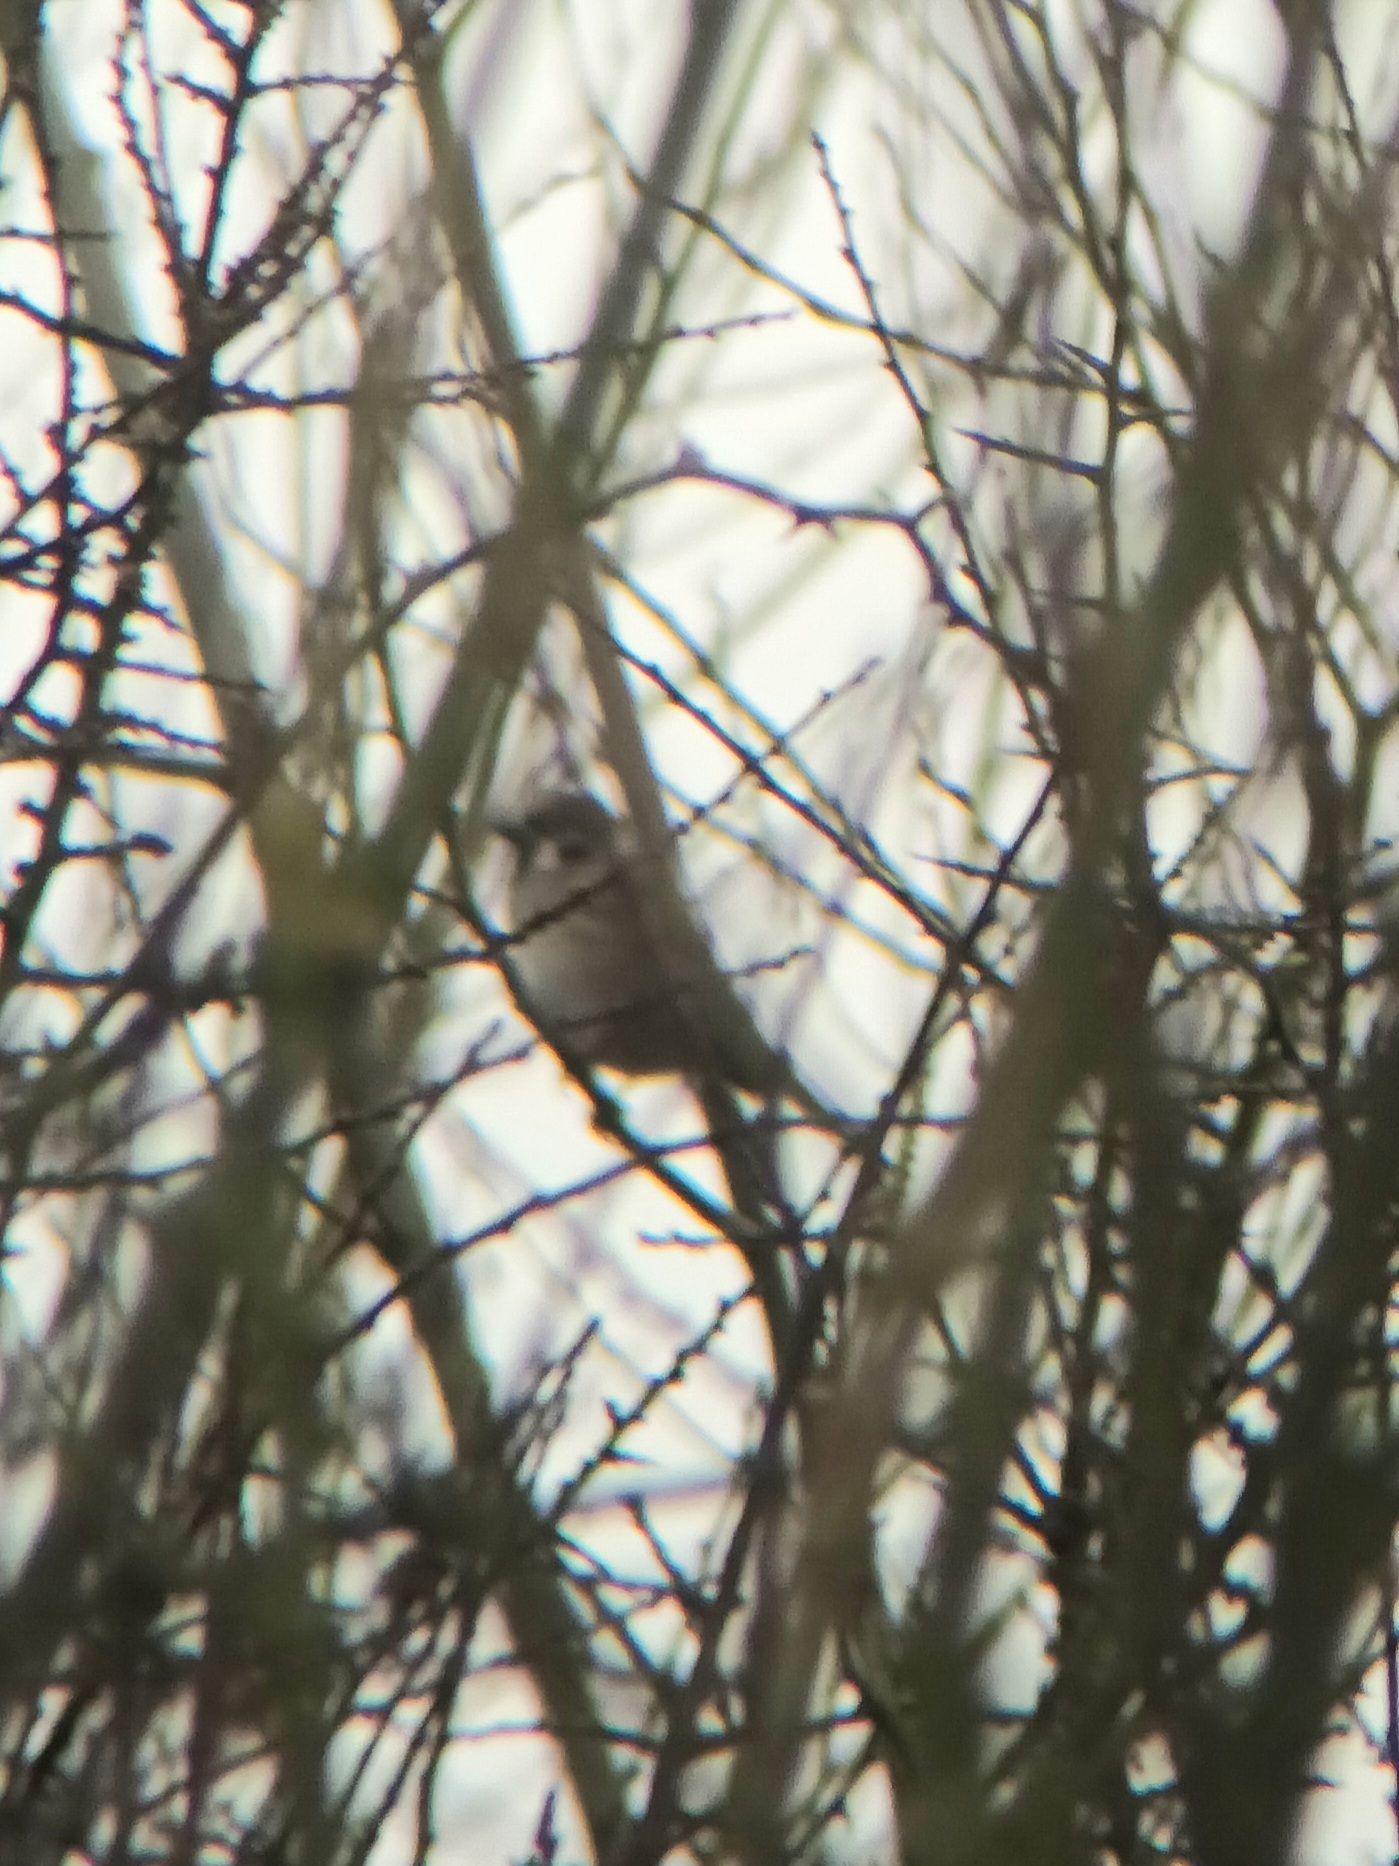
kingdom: Animalia
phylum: Chordata
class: Aves
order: Passeriformes
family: Passeridae
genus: Passer
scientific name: Passer montanus
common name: Eurasian tree sparrow
